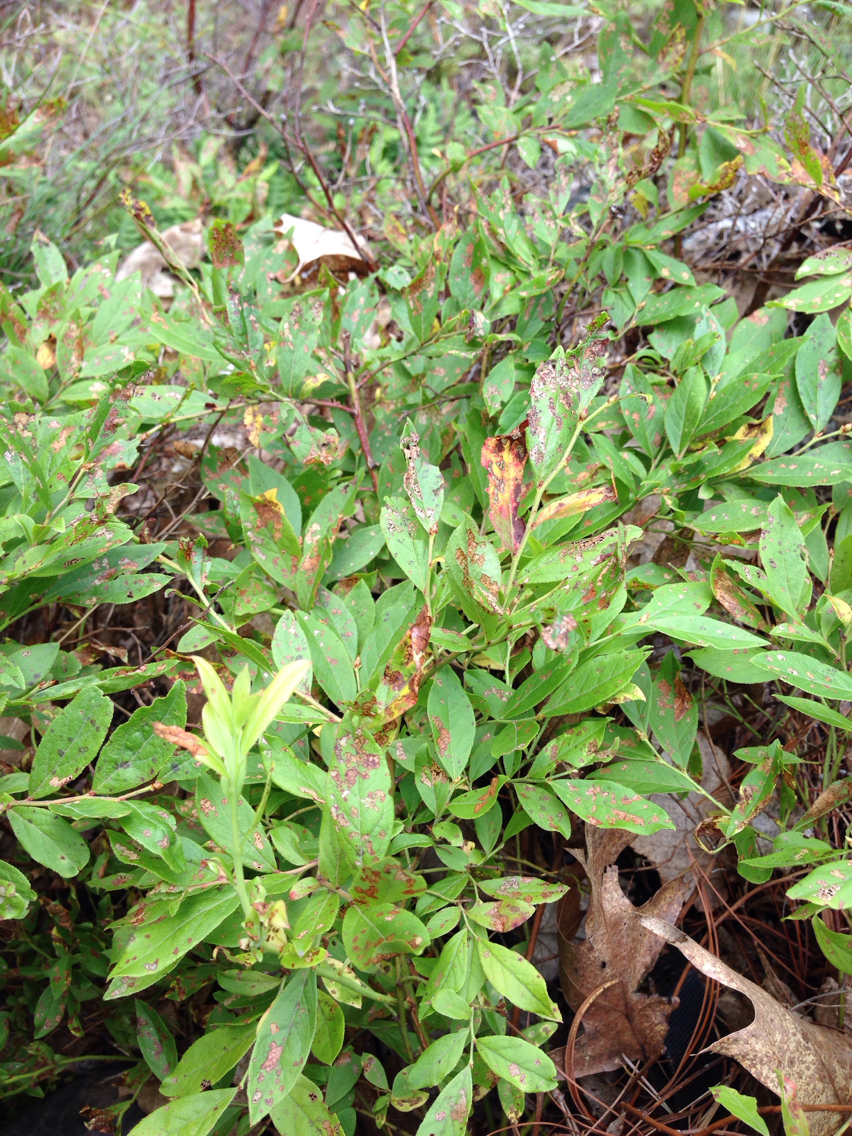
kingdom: Plantae
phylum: Tracheophyta
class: Magnoliopsida
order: Ericales
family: Ericaceae
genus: Vaccinium
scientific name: Vaccinium angustifolium
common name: Early lowbush blueberry
